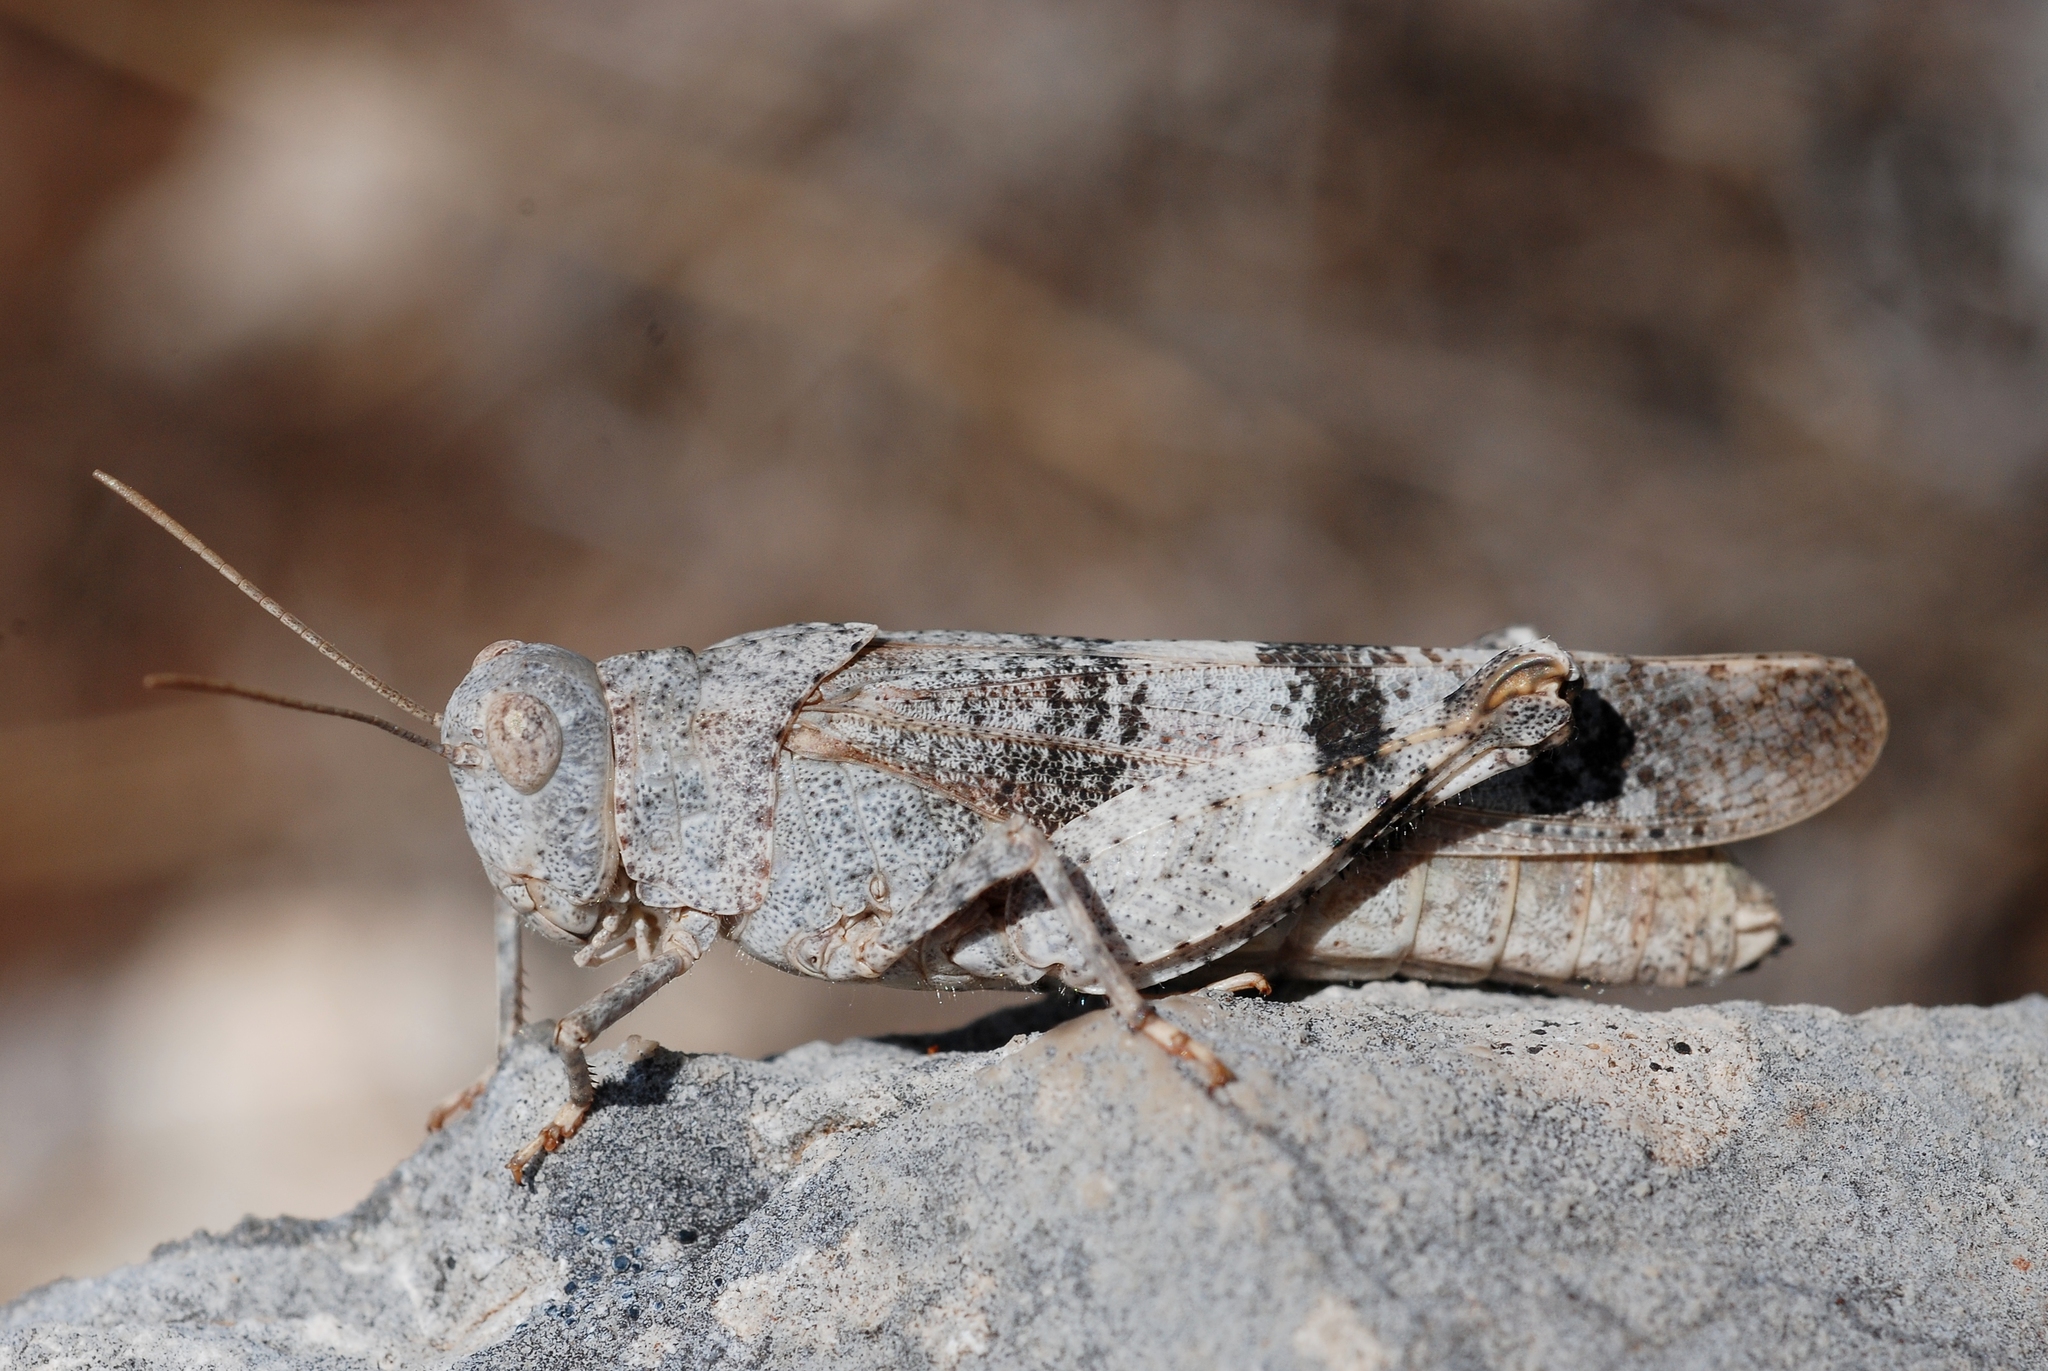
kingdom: Animalia
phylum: Arthropoda
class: Insecta
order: Orthoptera
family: Acrididae
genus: Oedipoda
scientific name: Oedipoda germanica
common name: Red band-winged grasshopper
